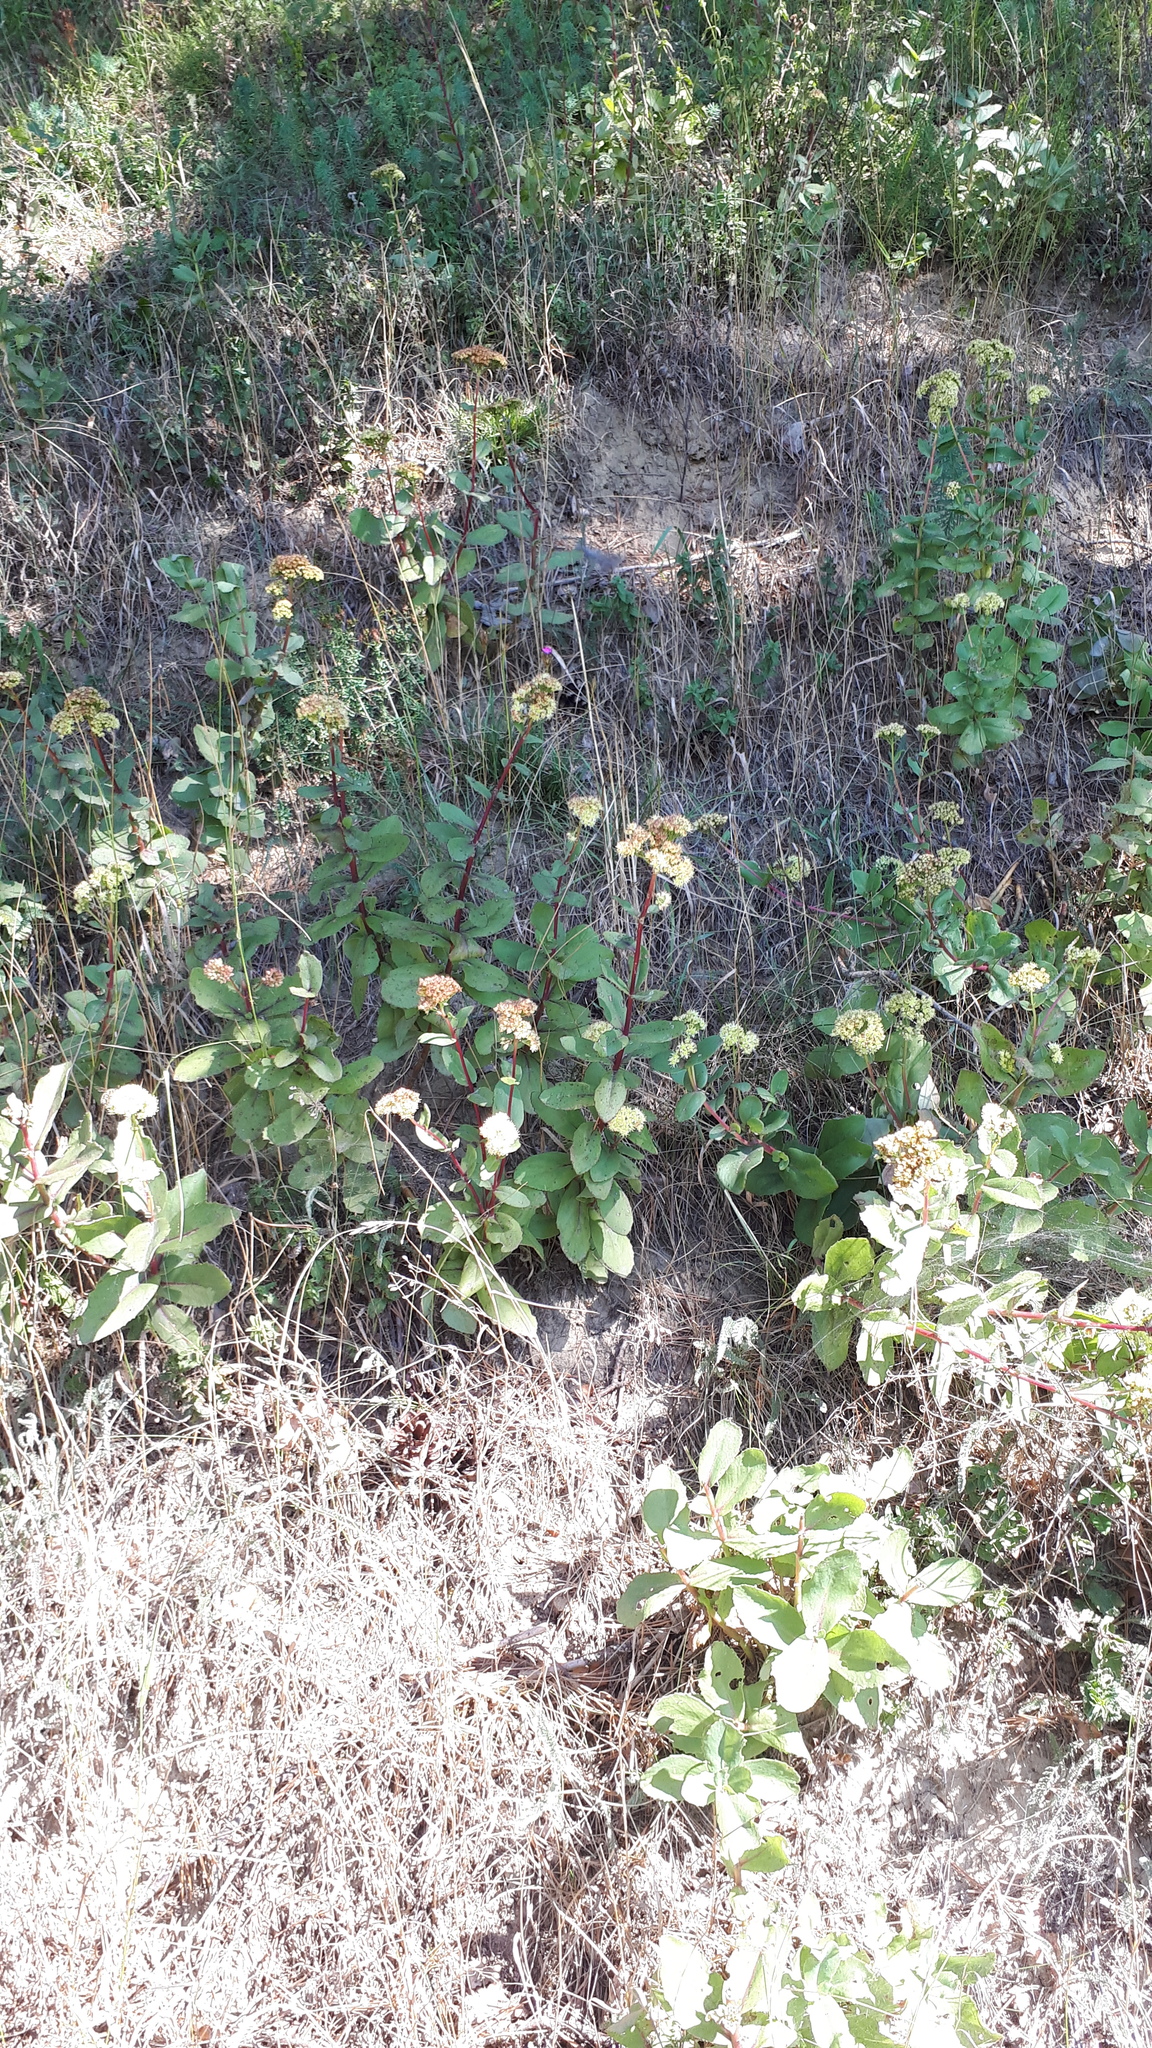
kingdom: Plantae
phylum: Tracheophyta
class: Magnoliopsida
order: Saxifragales
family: Crassulaceae
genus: Hylotelephium
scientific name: Hylotelephium maximum
